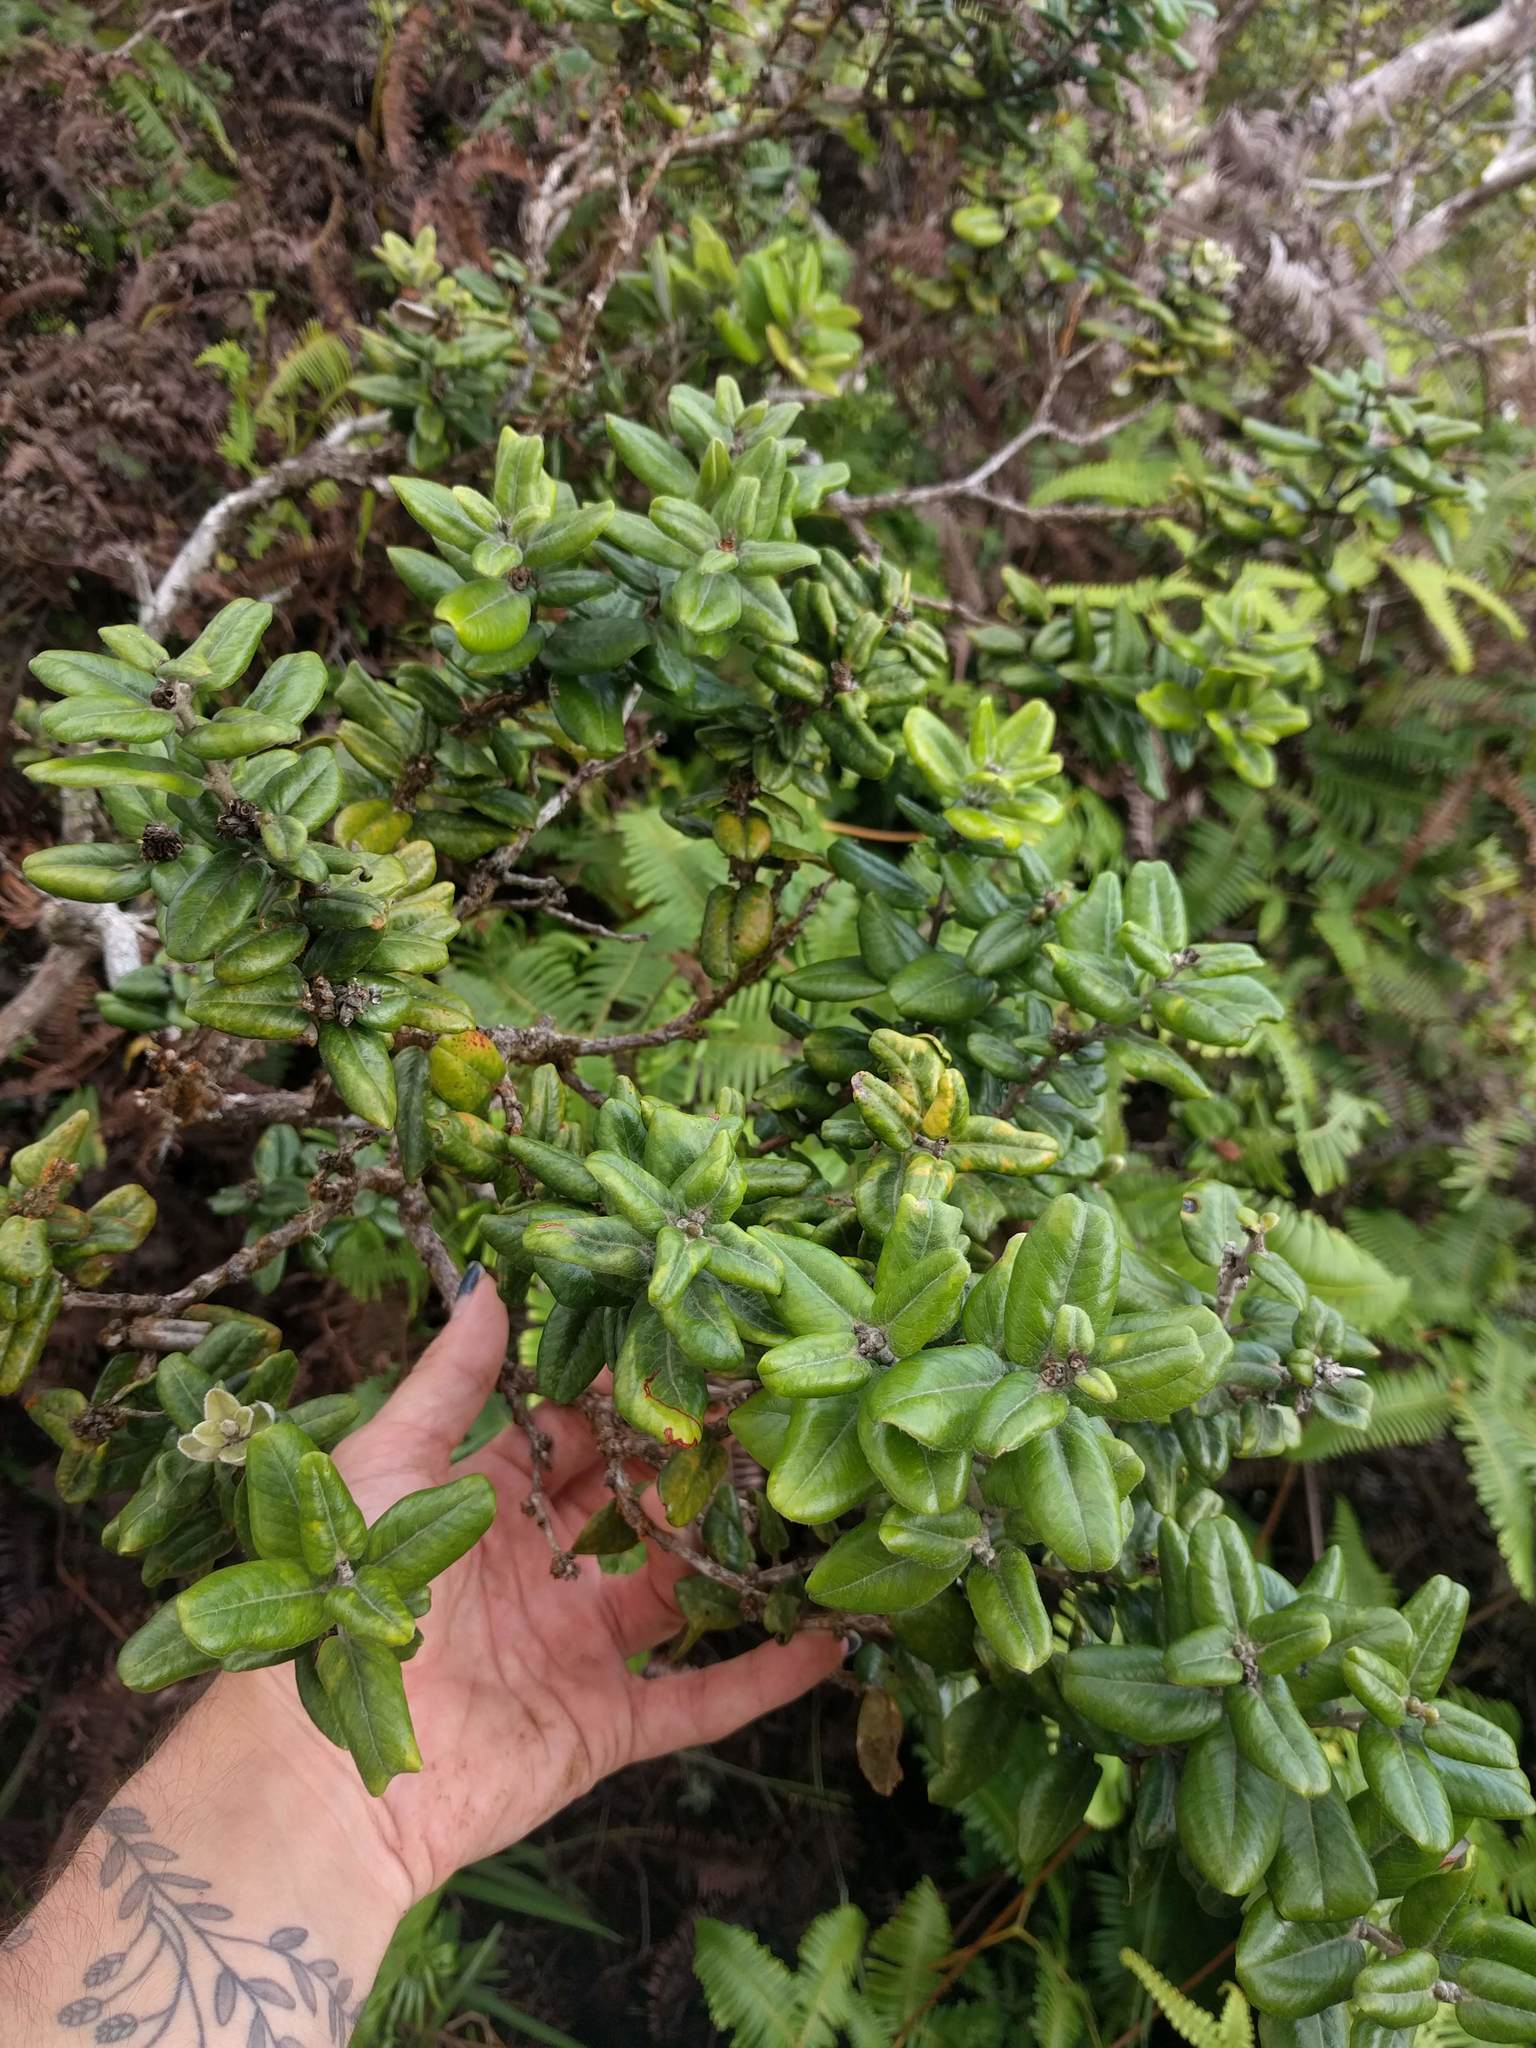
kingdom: Plantae
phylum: Tracheophyta
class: Magnoliopsida
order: Myrtales
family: Myrtaceae
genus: Metrosideros
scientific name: Metrosideros polymorpha
